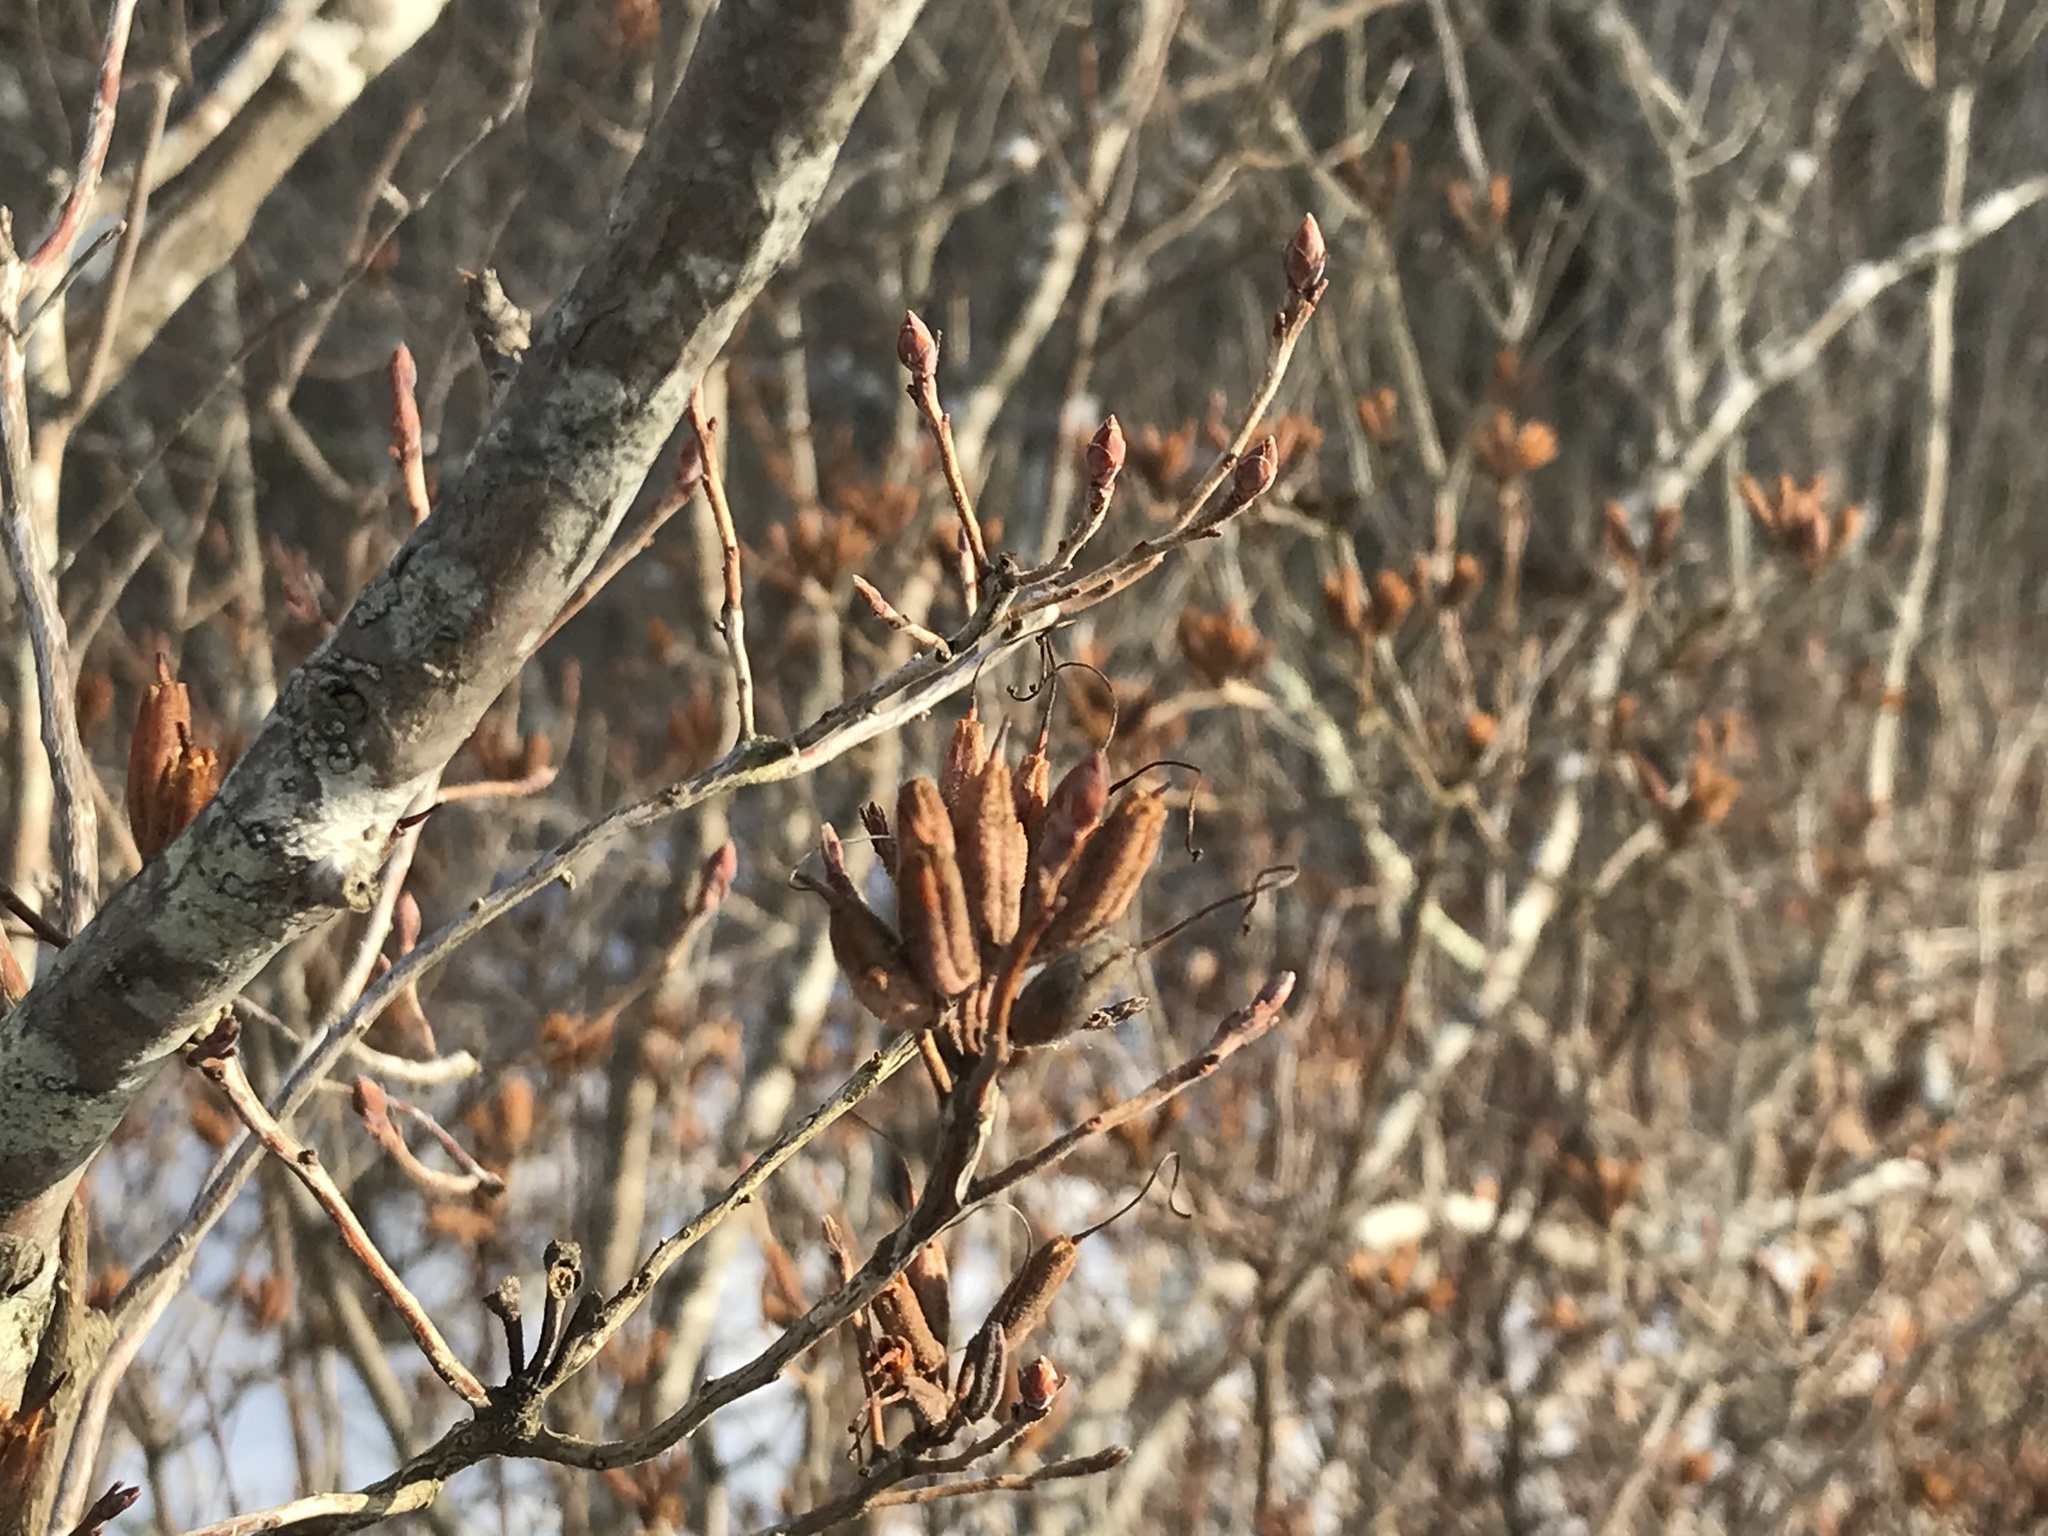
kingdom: Plantae
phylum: Tracheophyta
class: Magnoliopsida
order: Ericales
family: Ericaceae
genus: Rhododendron
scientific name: Rhododendron canadense
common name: Rhodora
